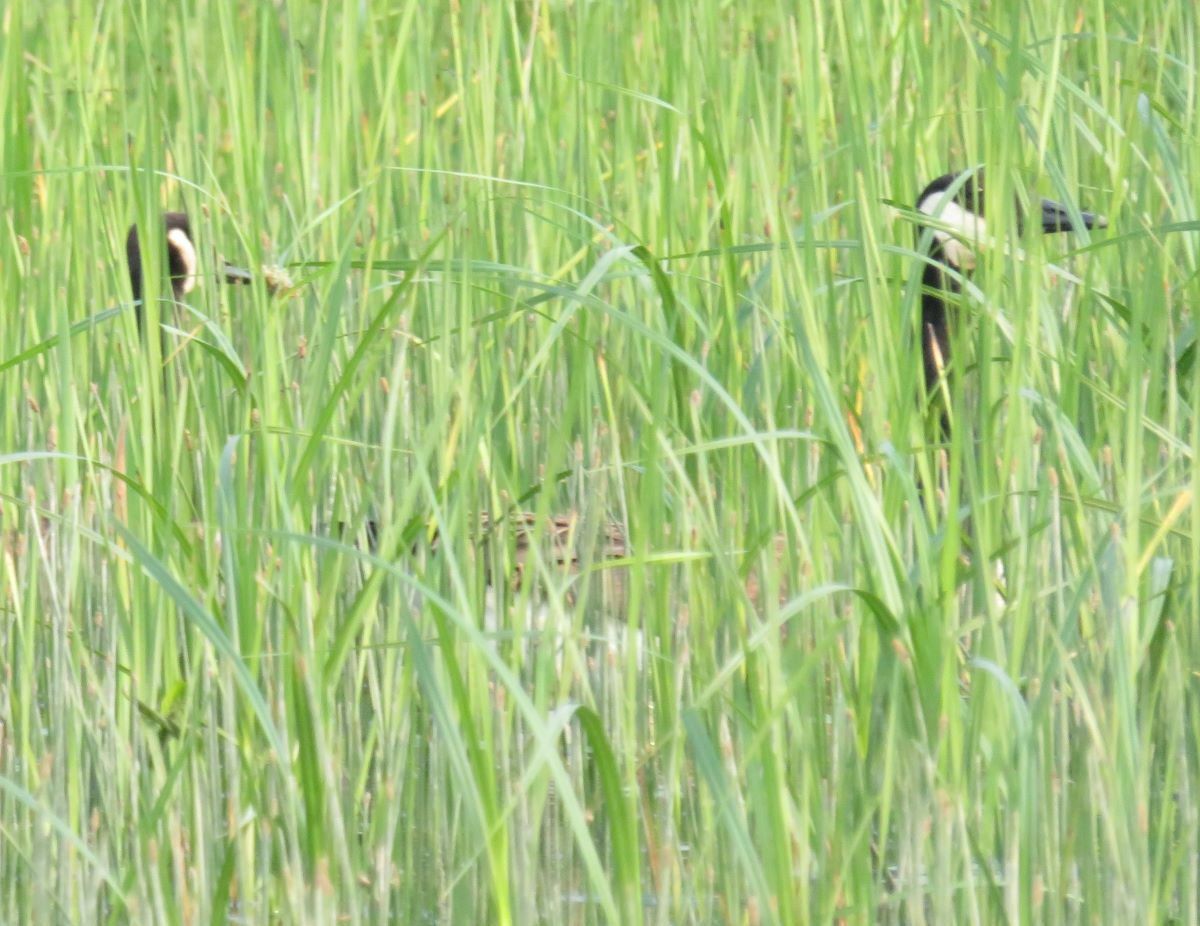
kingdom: Animalia
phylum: Chordata
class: Aves
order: Anseriformes
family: Anatidae
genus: Branta
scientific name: Branta canadensis
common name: Canada goose
